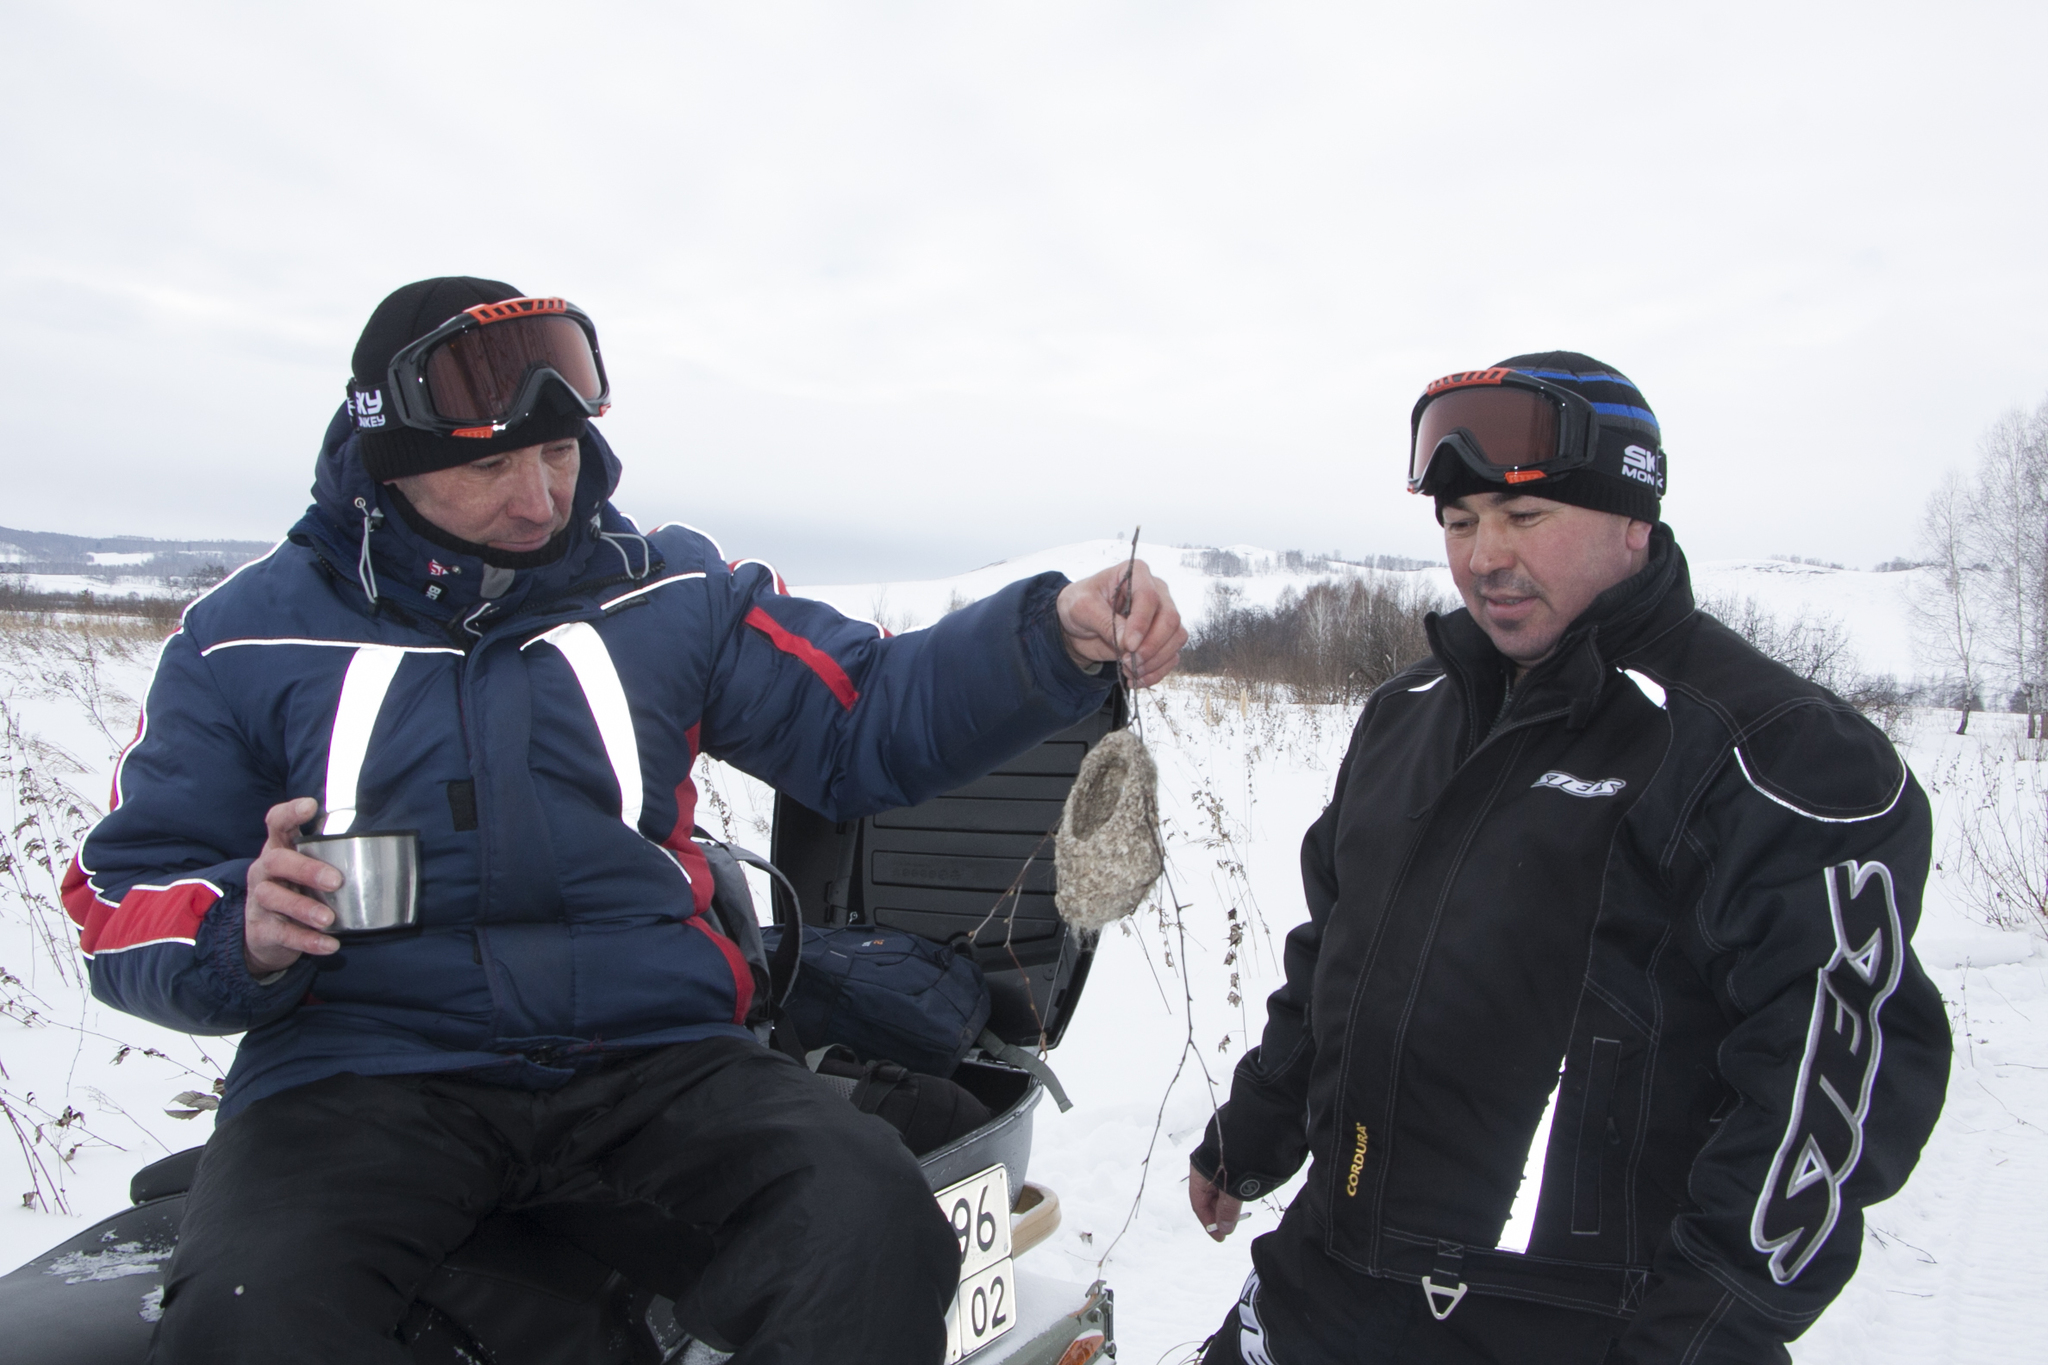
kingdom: Animalia
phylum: Chordata
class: Aves
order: Passeriformes
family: Remizidae
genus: Remiz
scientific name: Remiz pendulinus
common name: Eurasian penduline tit
